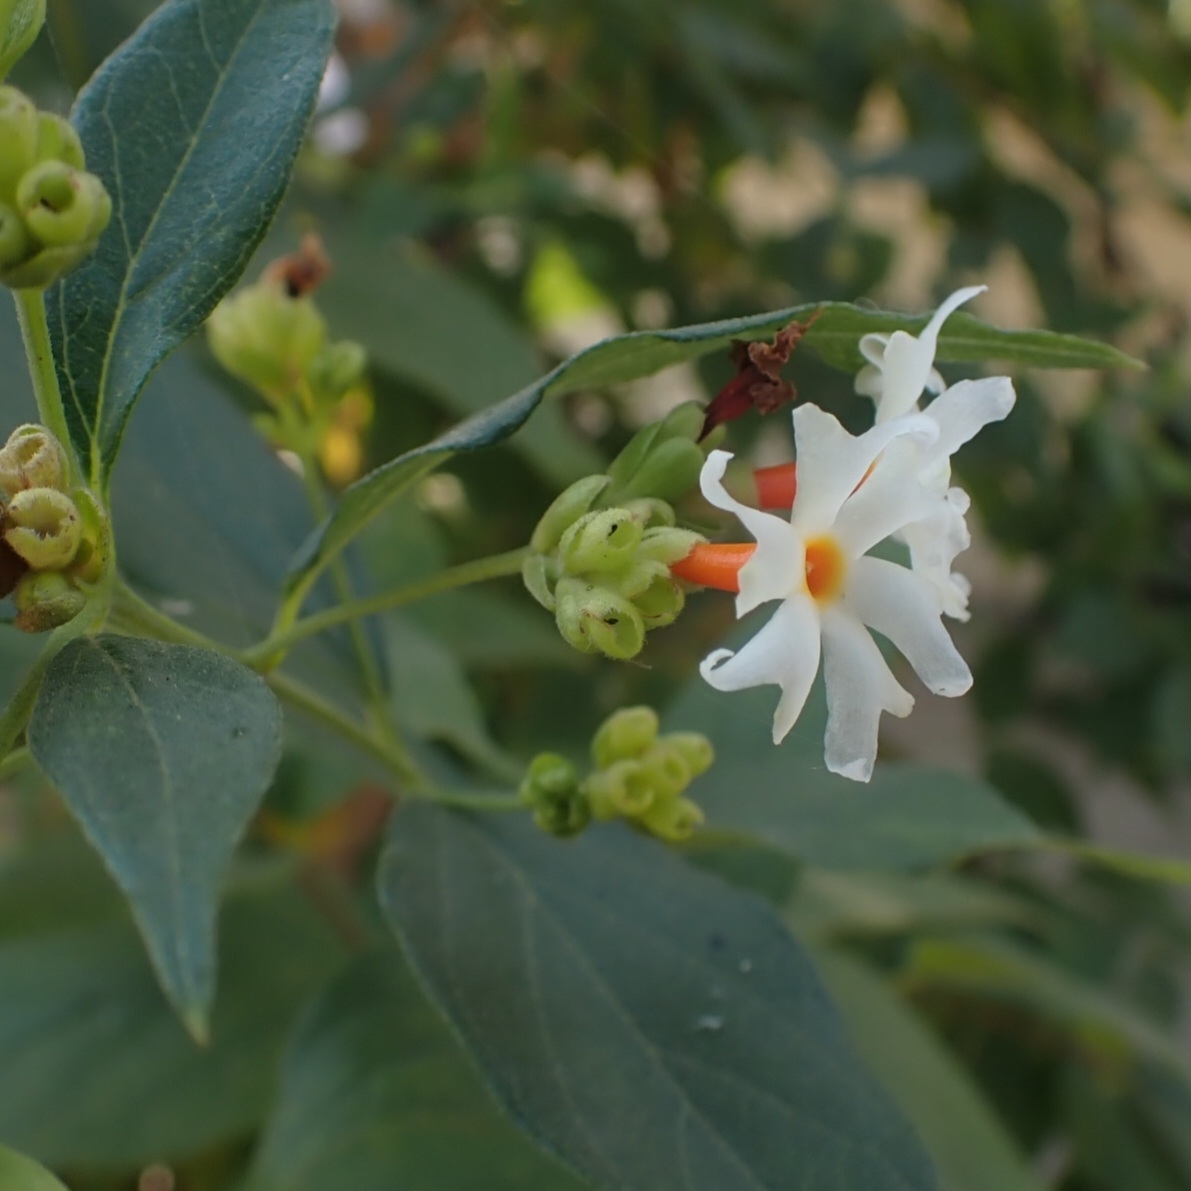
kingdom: Plantae
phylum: Tracheophyta
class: Magnoliopsida
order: Lamiales
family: Oleaceae
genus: Nyctanthes
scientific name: Nyctanthes arbor-tristis
